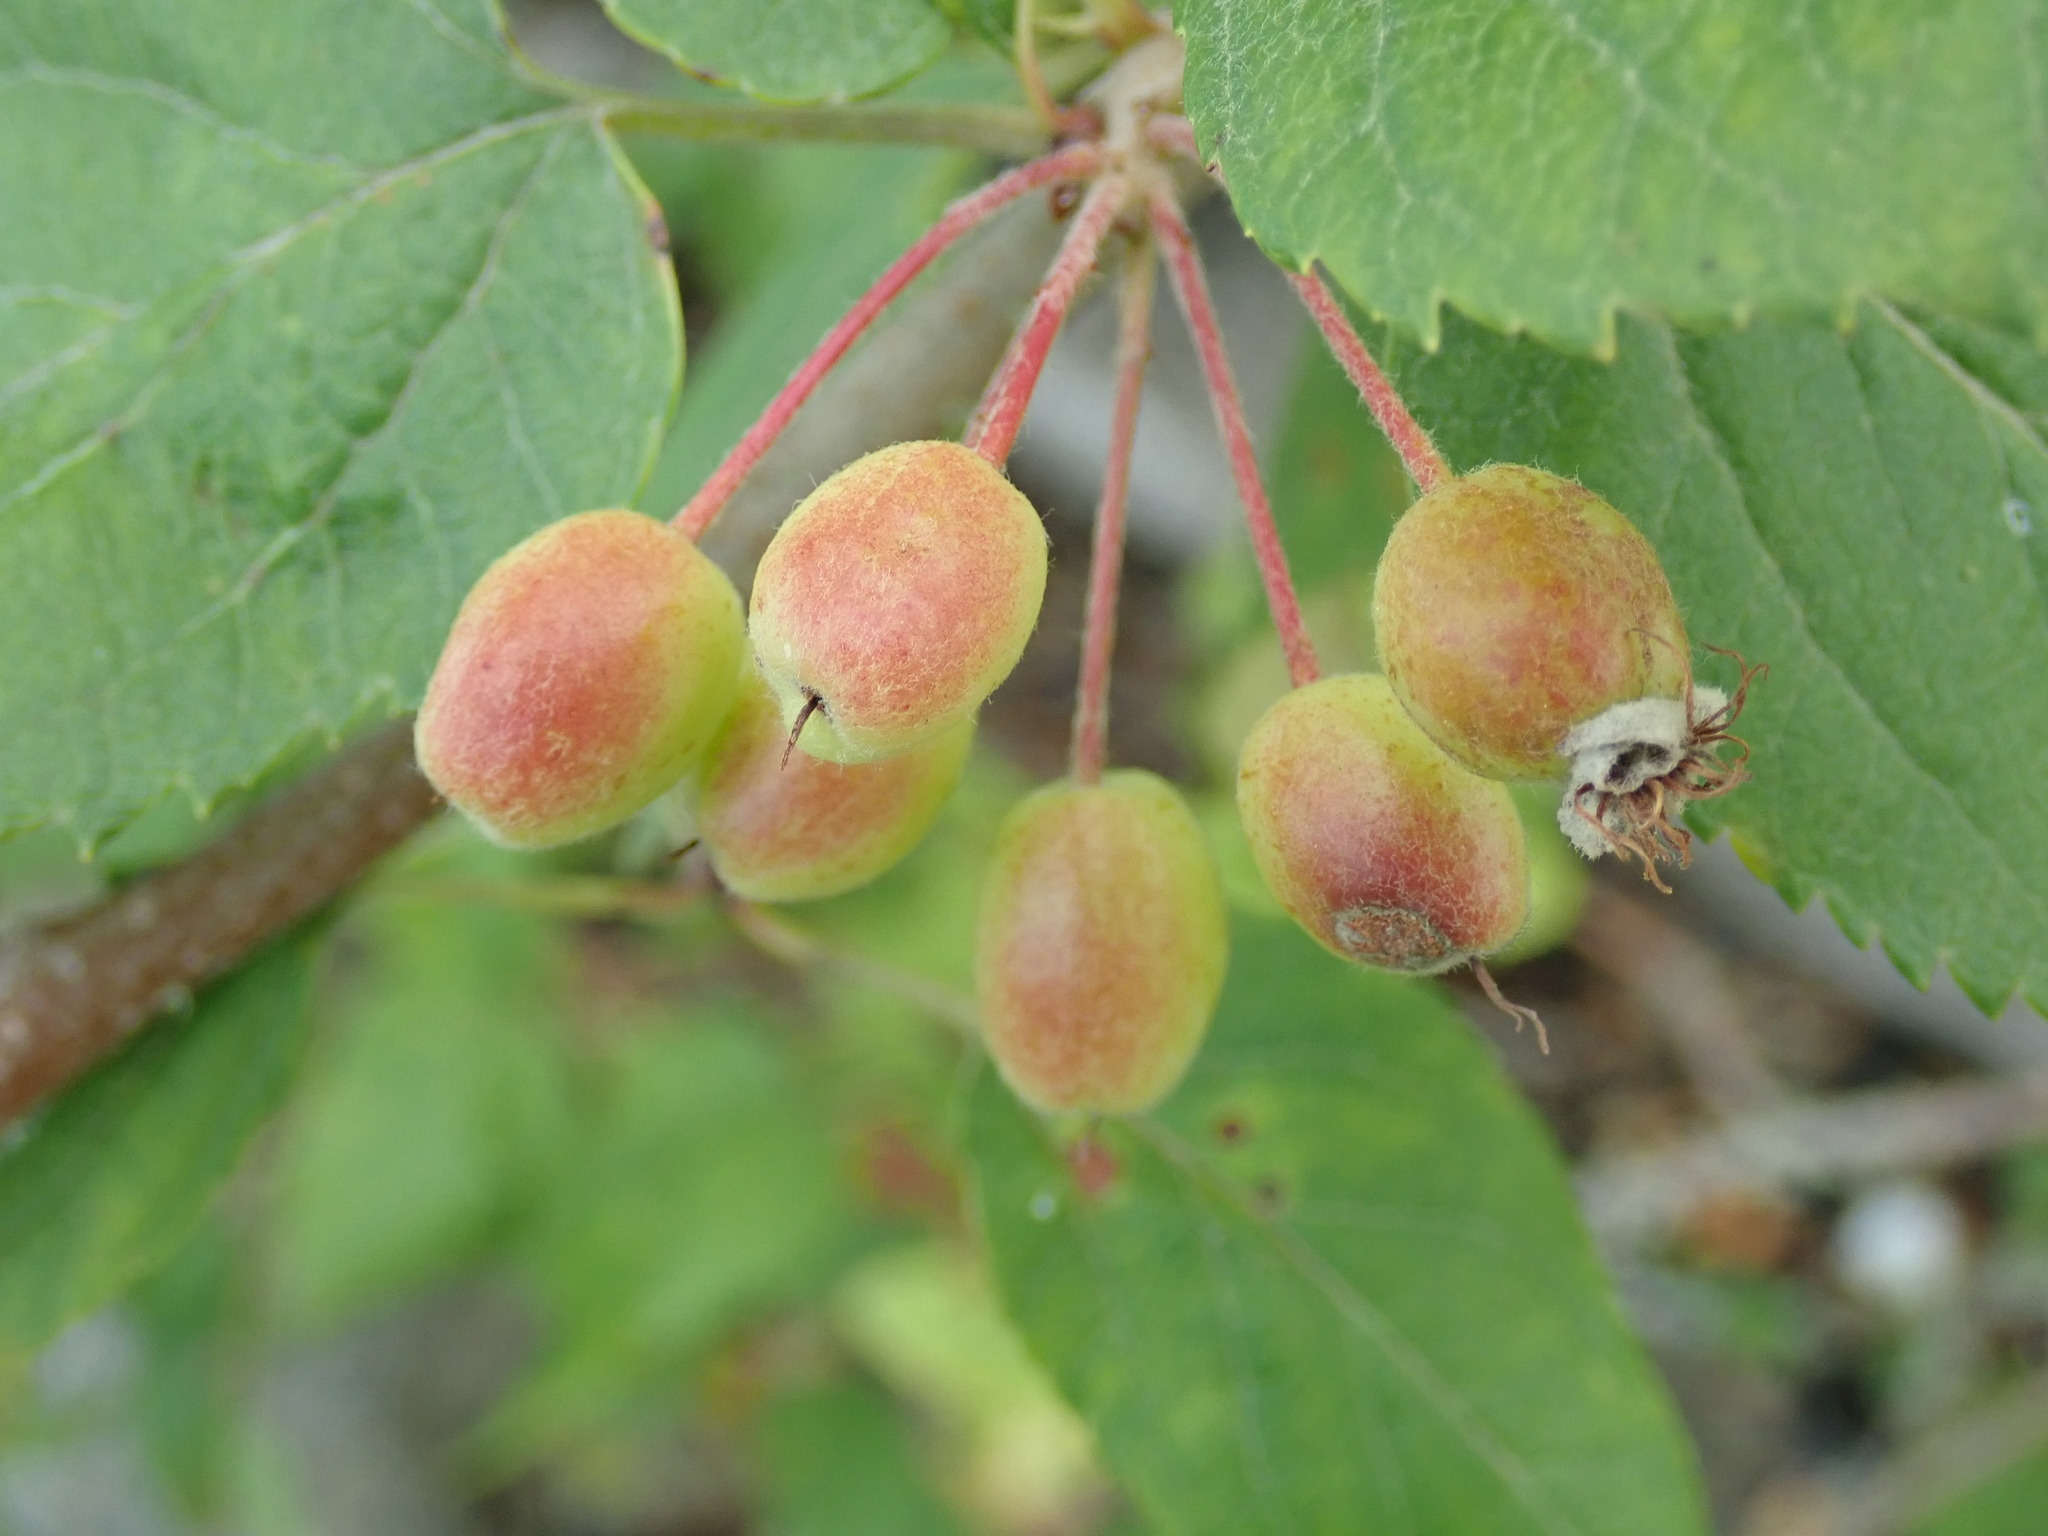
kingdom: Plantae
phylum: Tracheophyta
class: Magnoliopsida
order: Rosales
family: Rosaceae
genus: Malus
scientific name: Malus fusca
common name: Oregon crab apple
